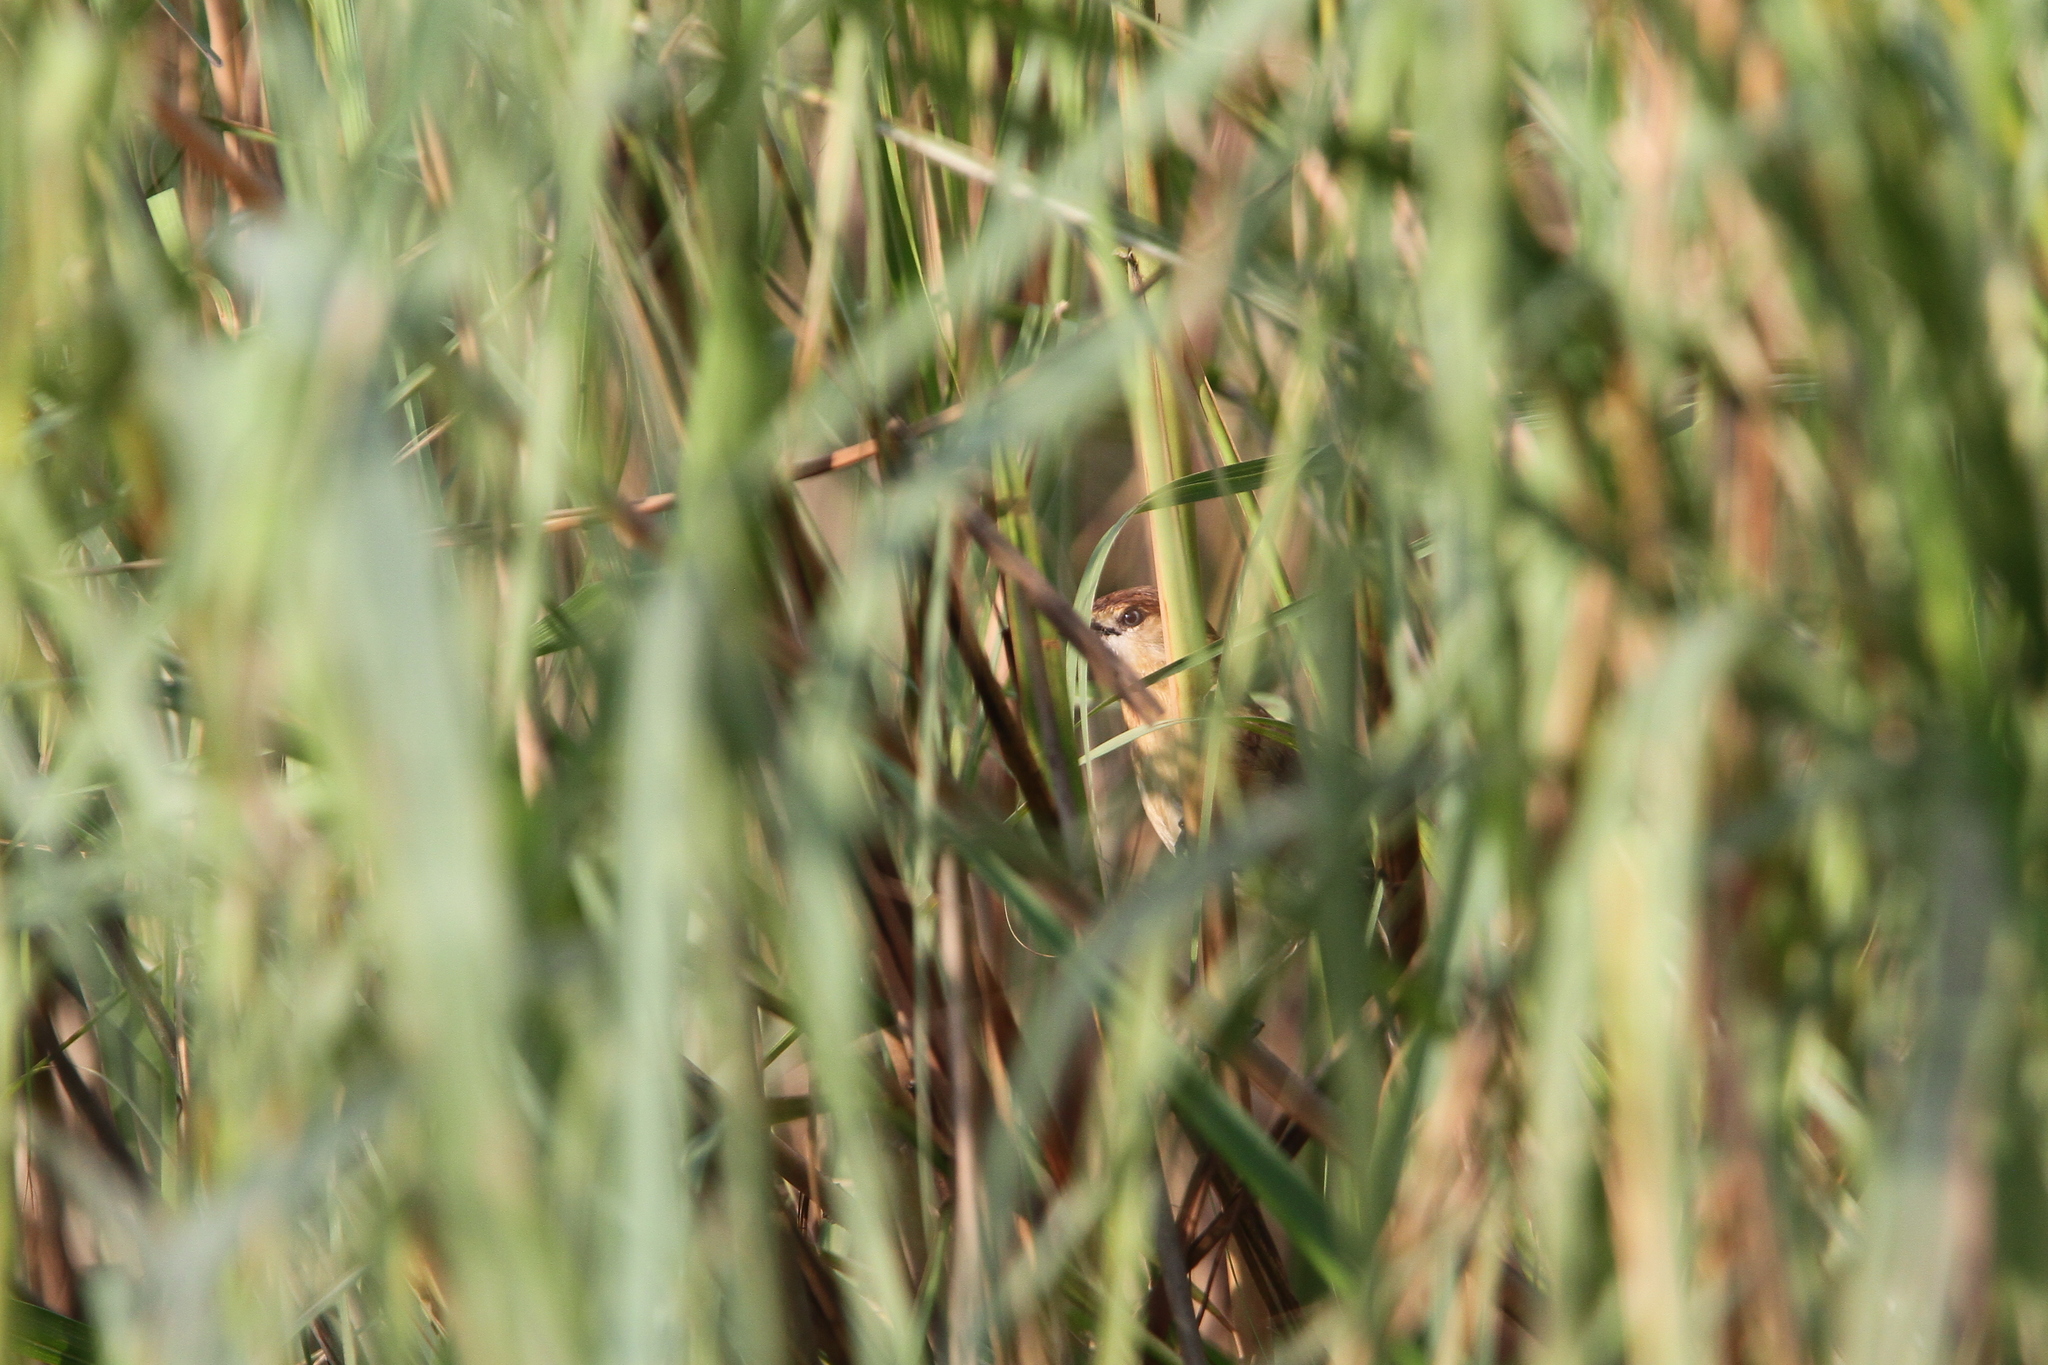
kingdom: Animalia
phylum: Chordata
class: Aves
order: Passeriformes
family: Leiothrichidae
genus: Argya
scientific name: Argya longirostris
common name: Slender-billed babbler
